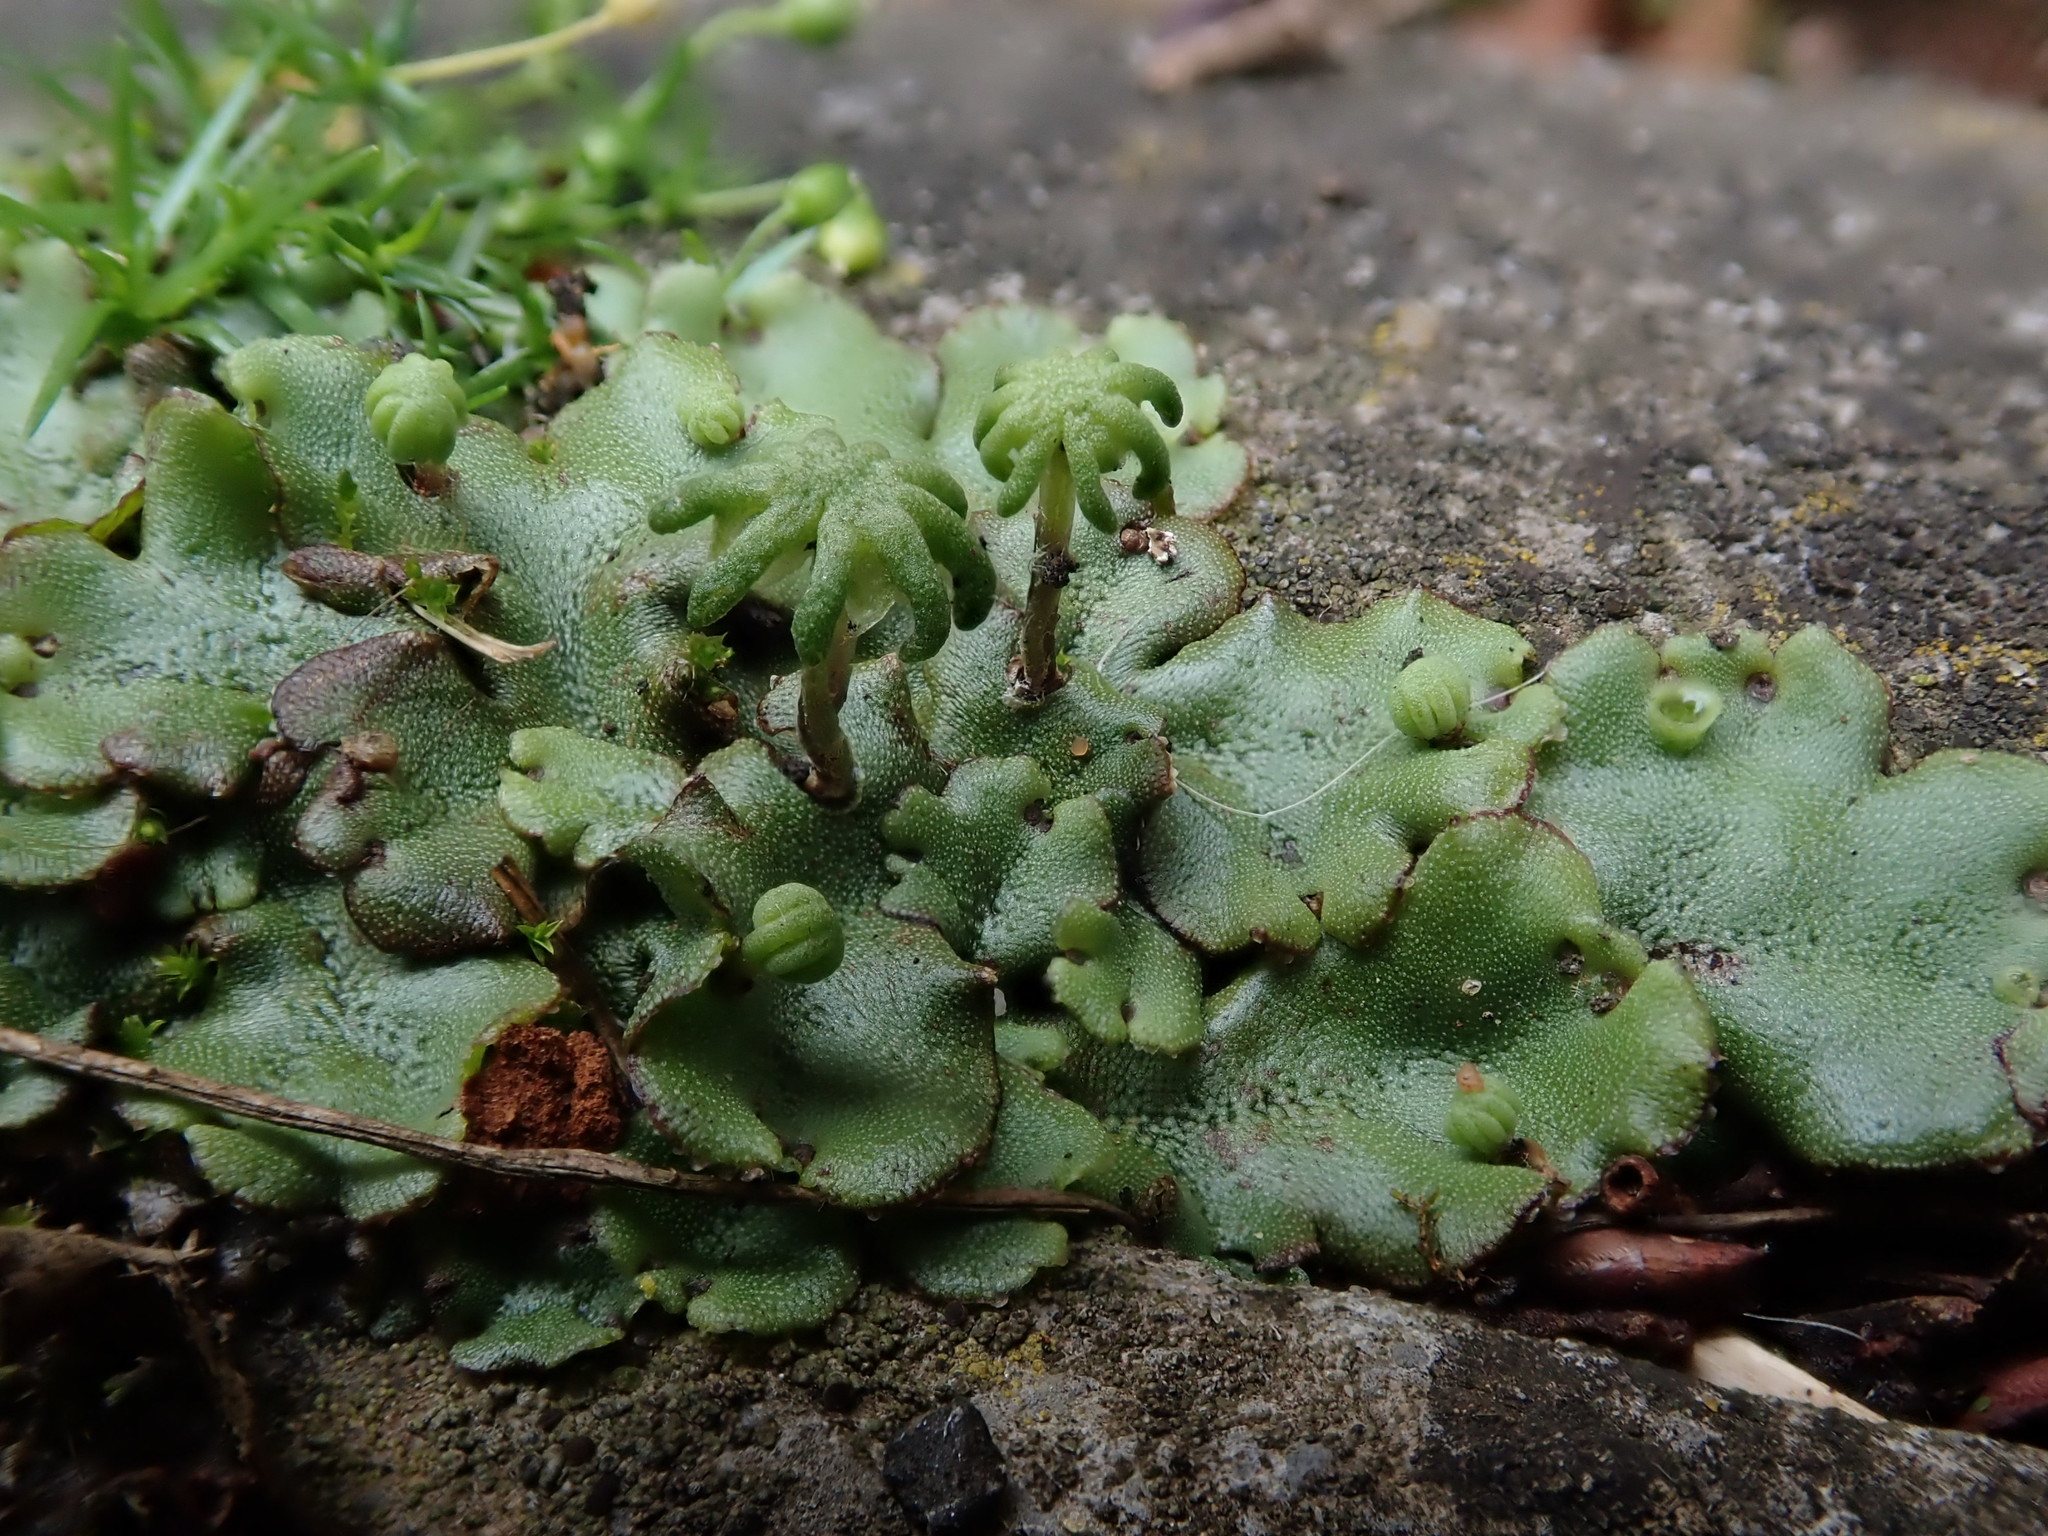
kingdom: Plantae
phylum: Marchantiophyta
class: Marchantiopsida
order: Marchantiales
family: Marchantiaceae
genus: Marchantia
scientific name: Marchantia polymorpha
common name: Common liverwort
